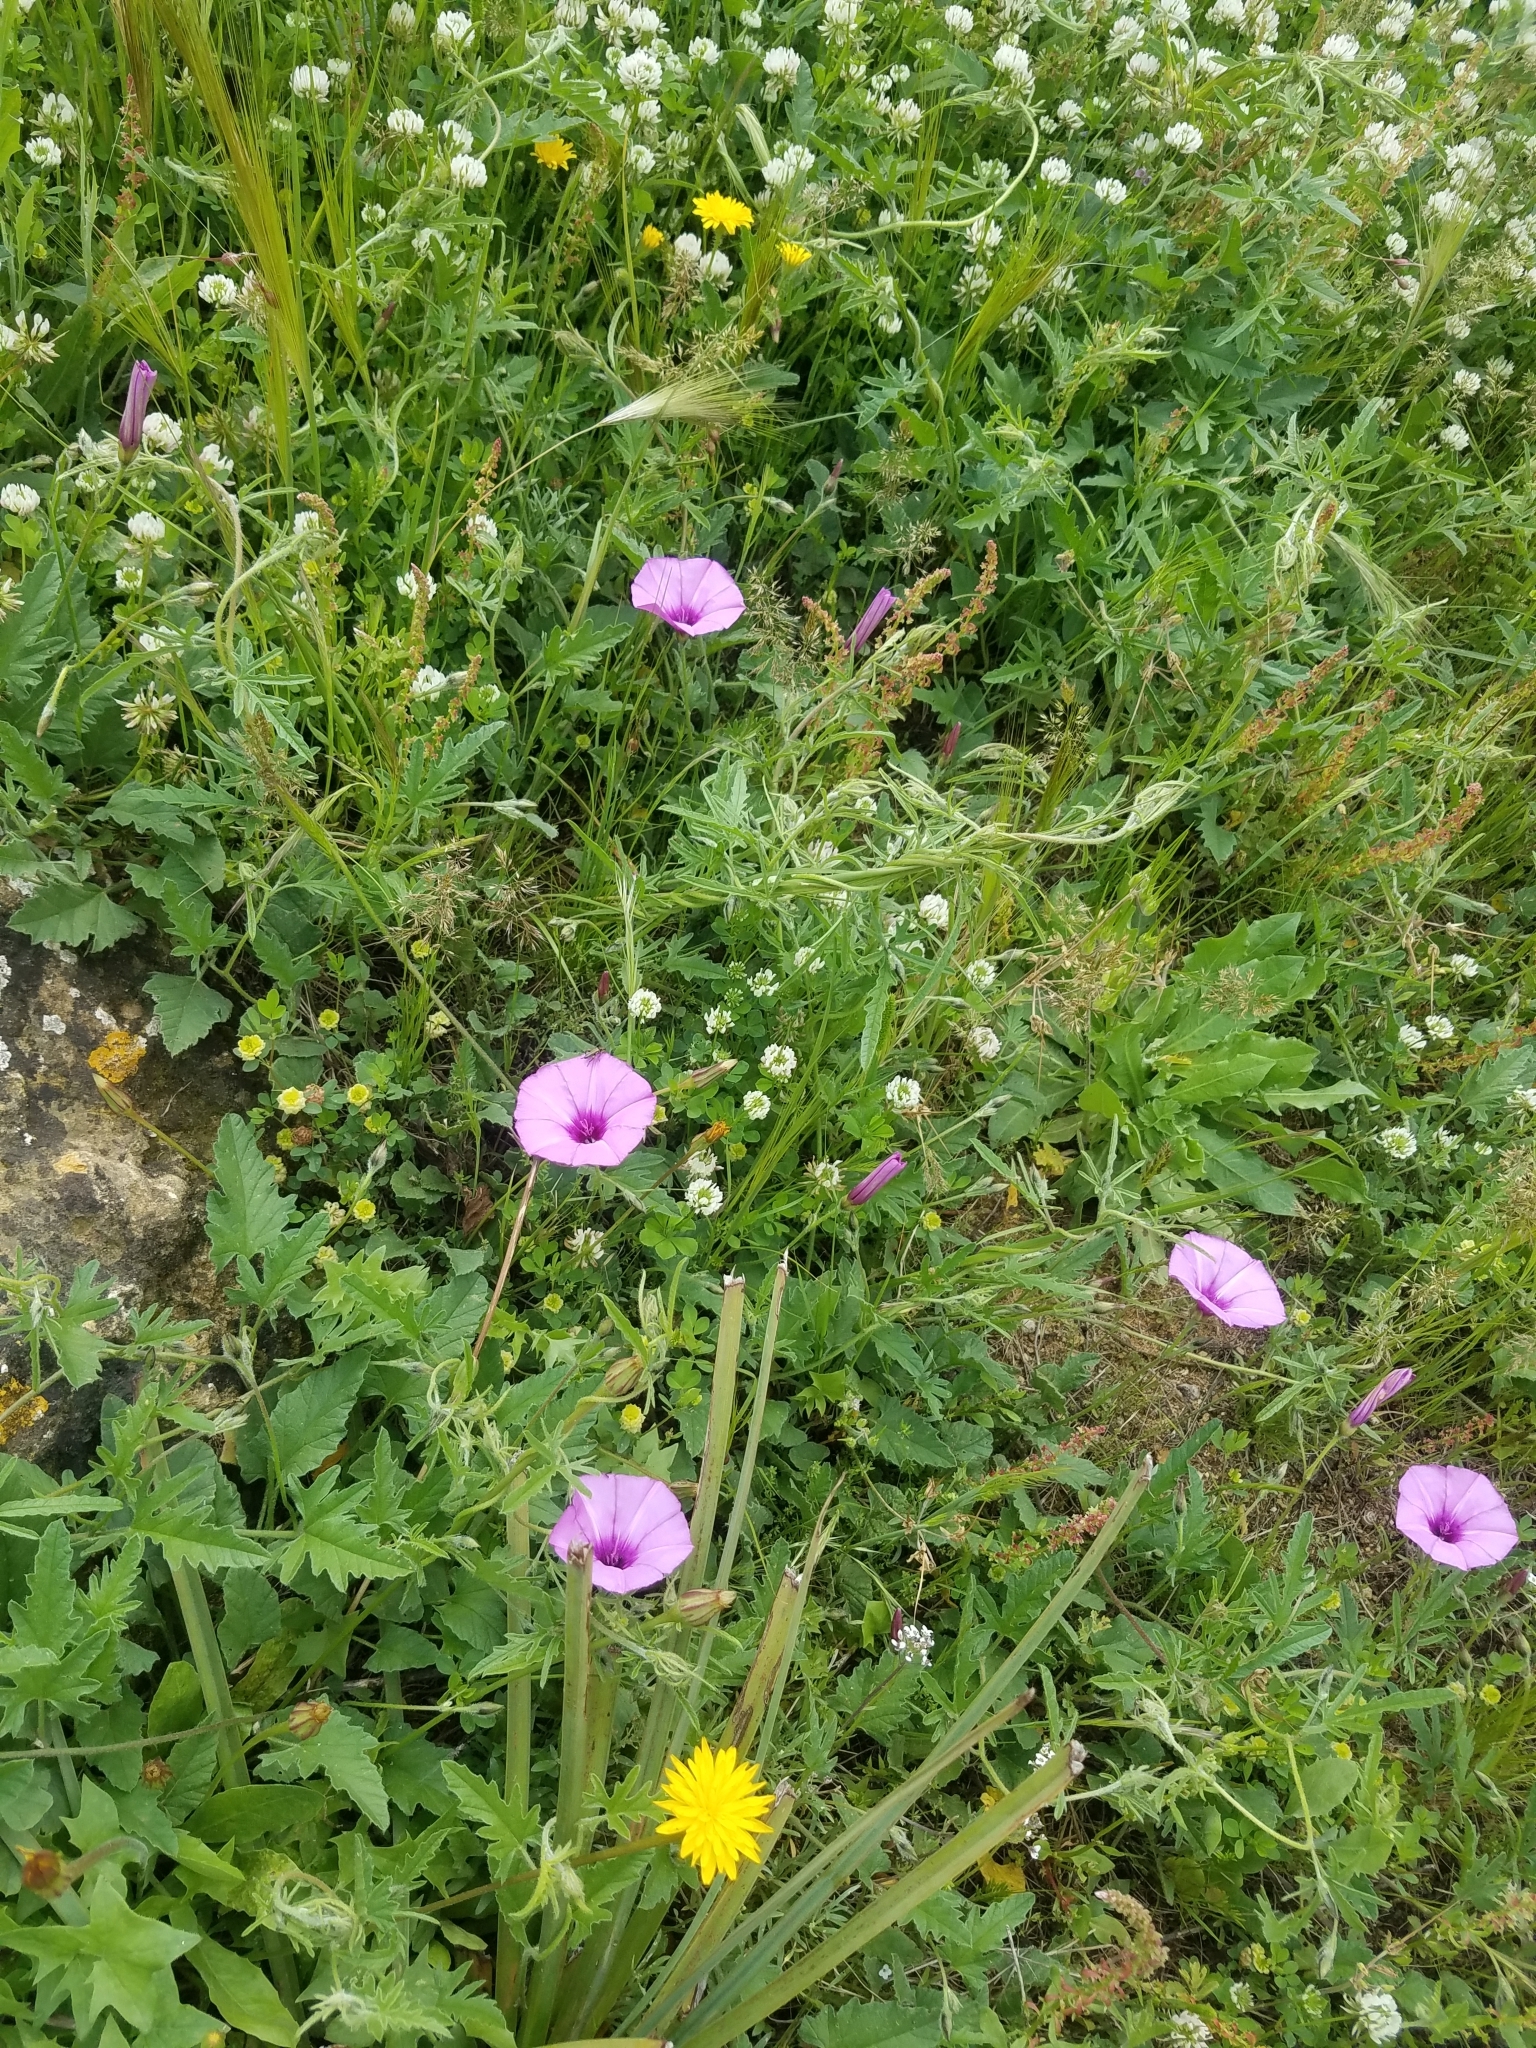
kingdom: Plantae
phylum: Tracheophyta
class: Magnoliopsida
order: Solanales
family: Convolvulaceae
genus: Convolvulus
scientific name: Convolvulus althaeoides
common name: Mallow bindweed
